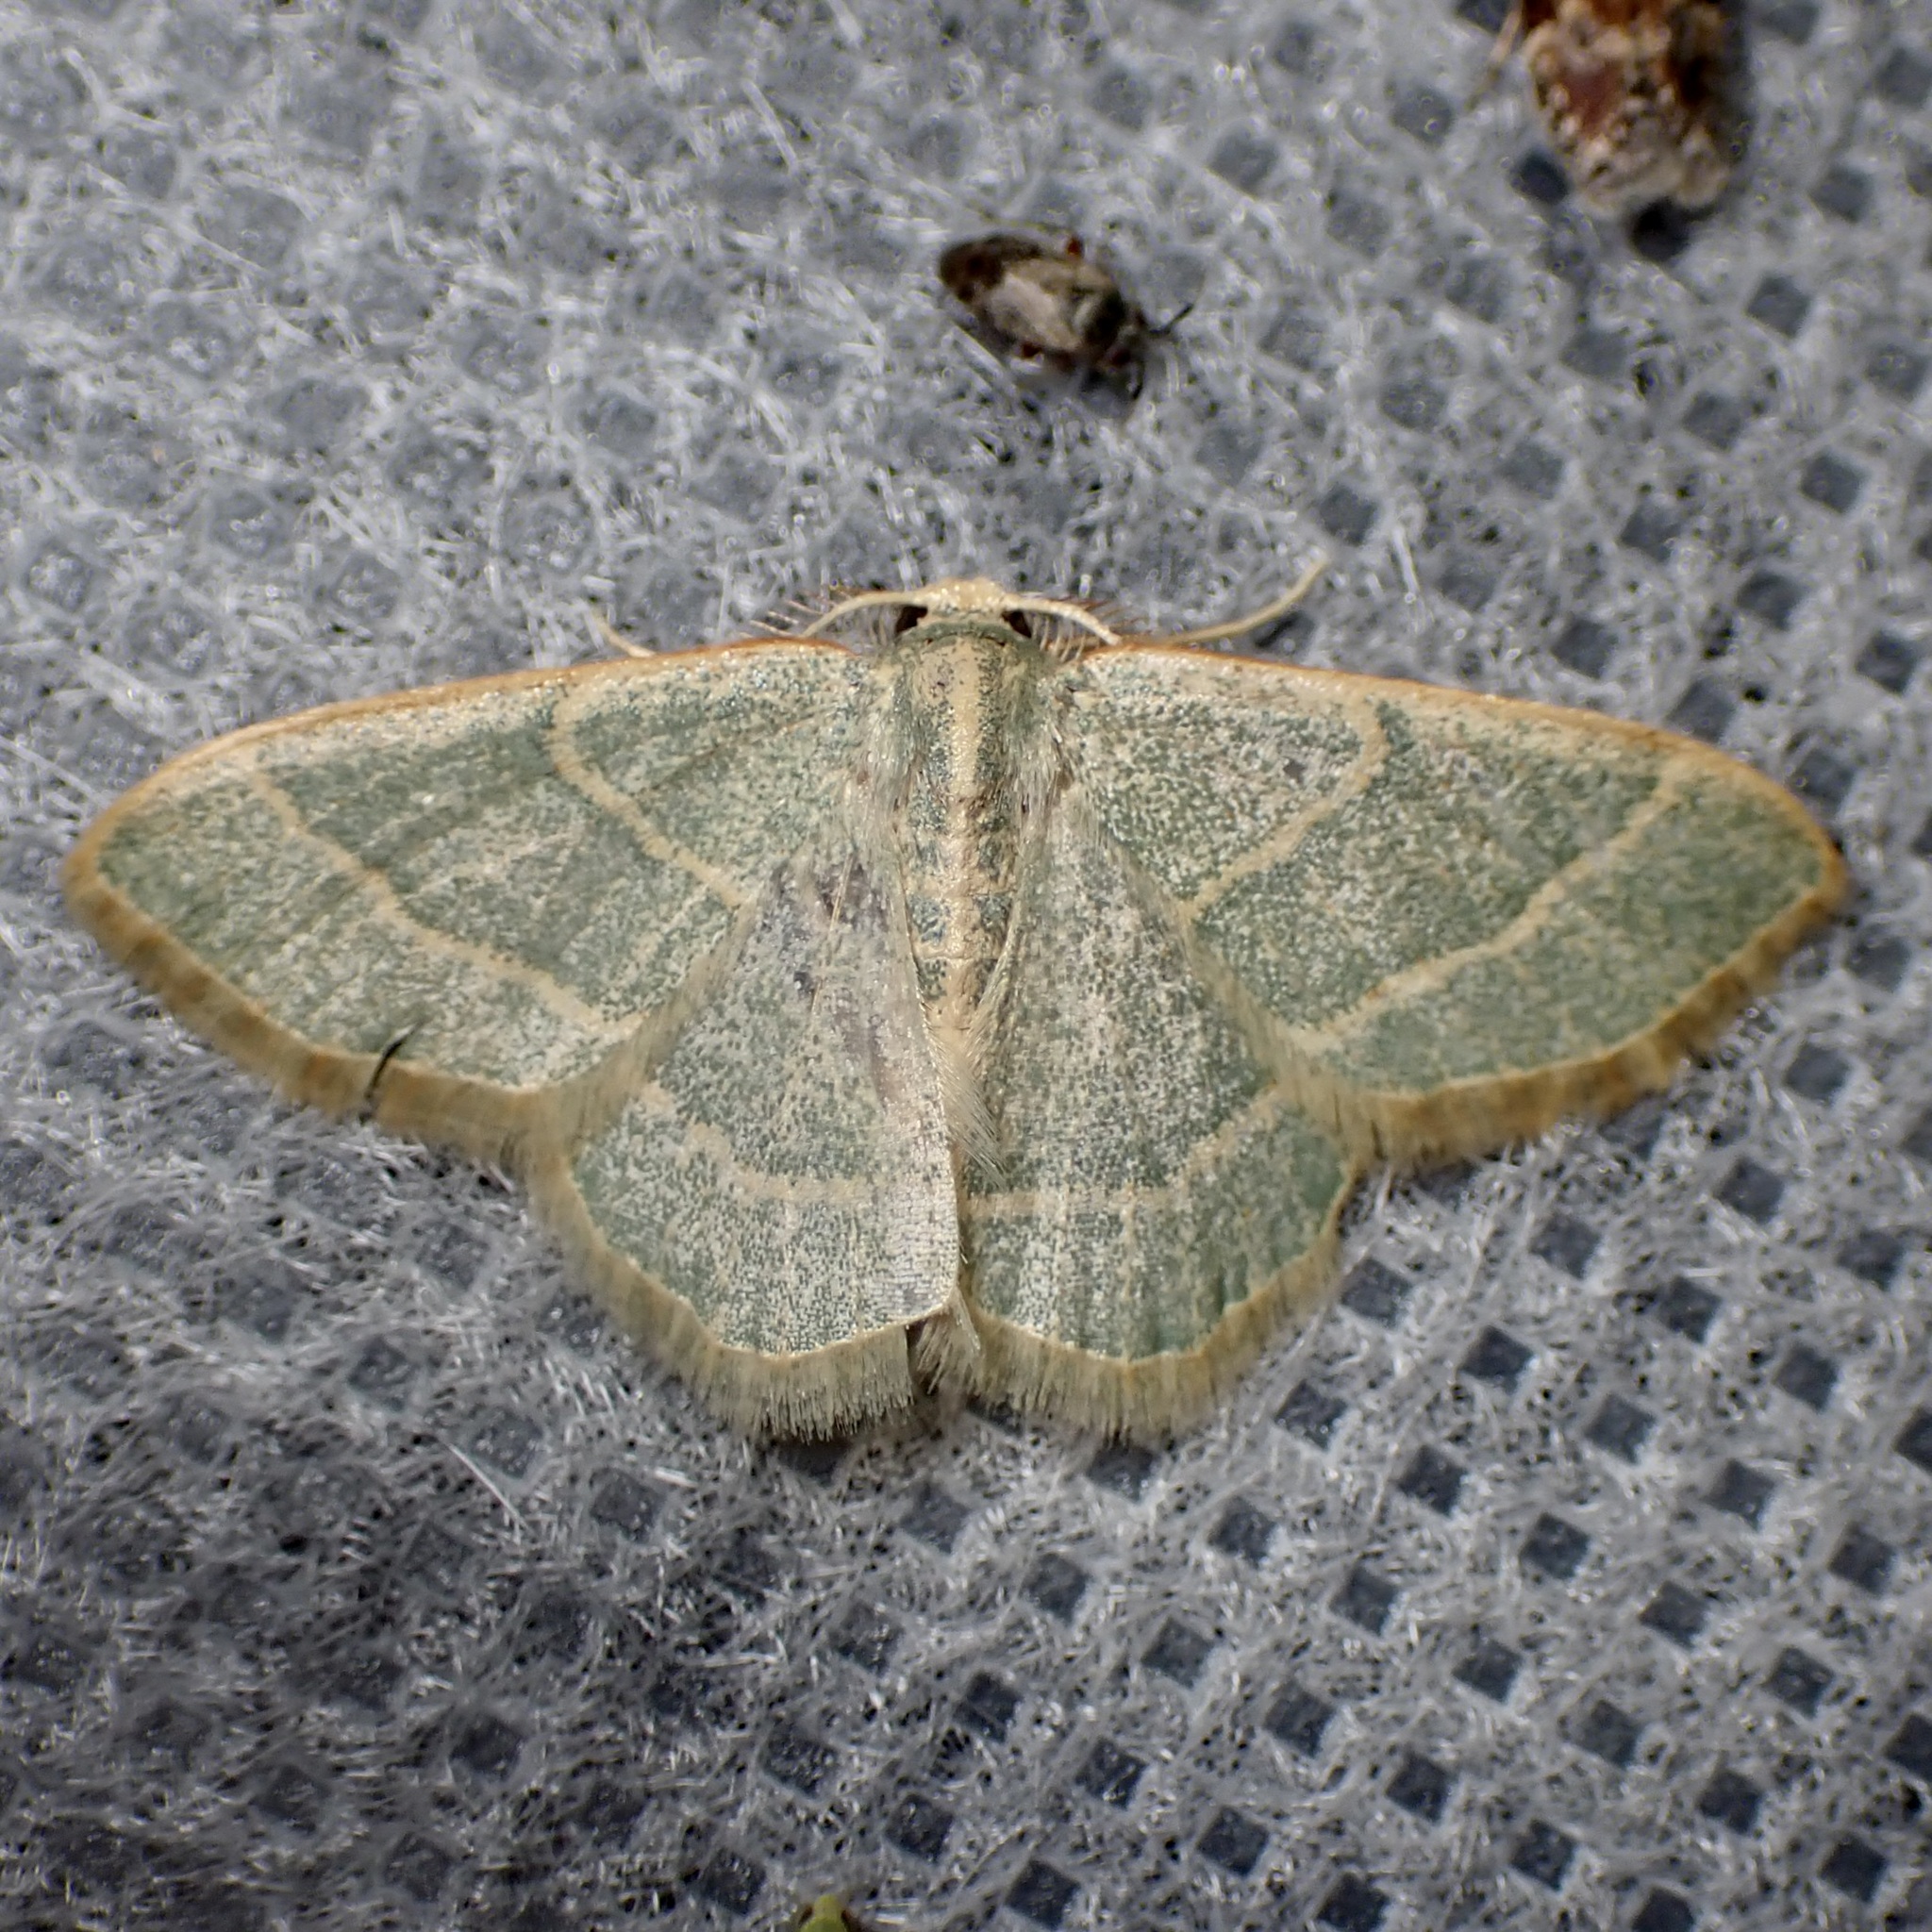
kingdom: Animalia
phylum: Arthropoda
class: Insecta
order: Lepidoptera
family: Geometridae
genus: Chlorochlamys
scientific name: Chlorochlamys appellaria
